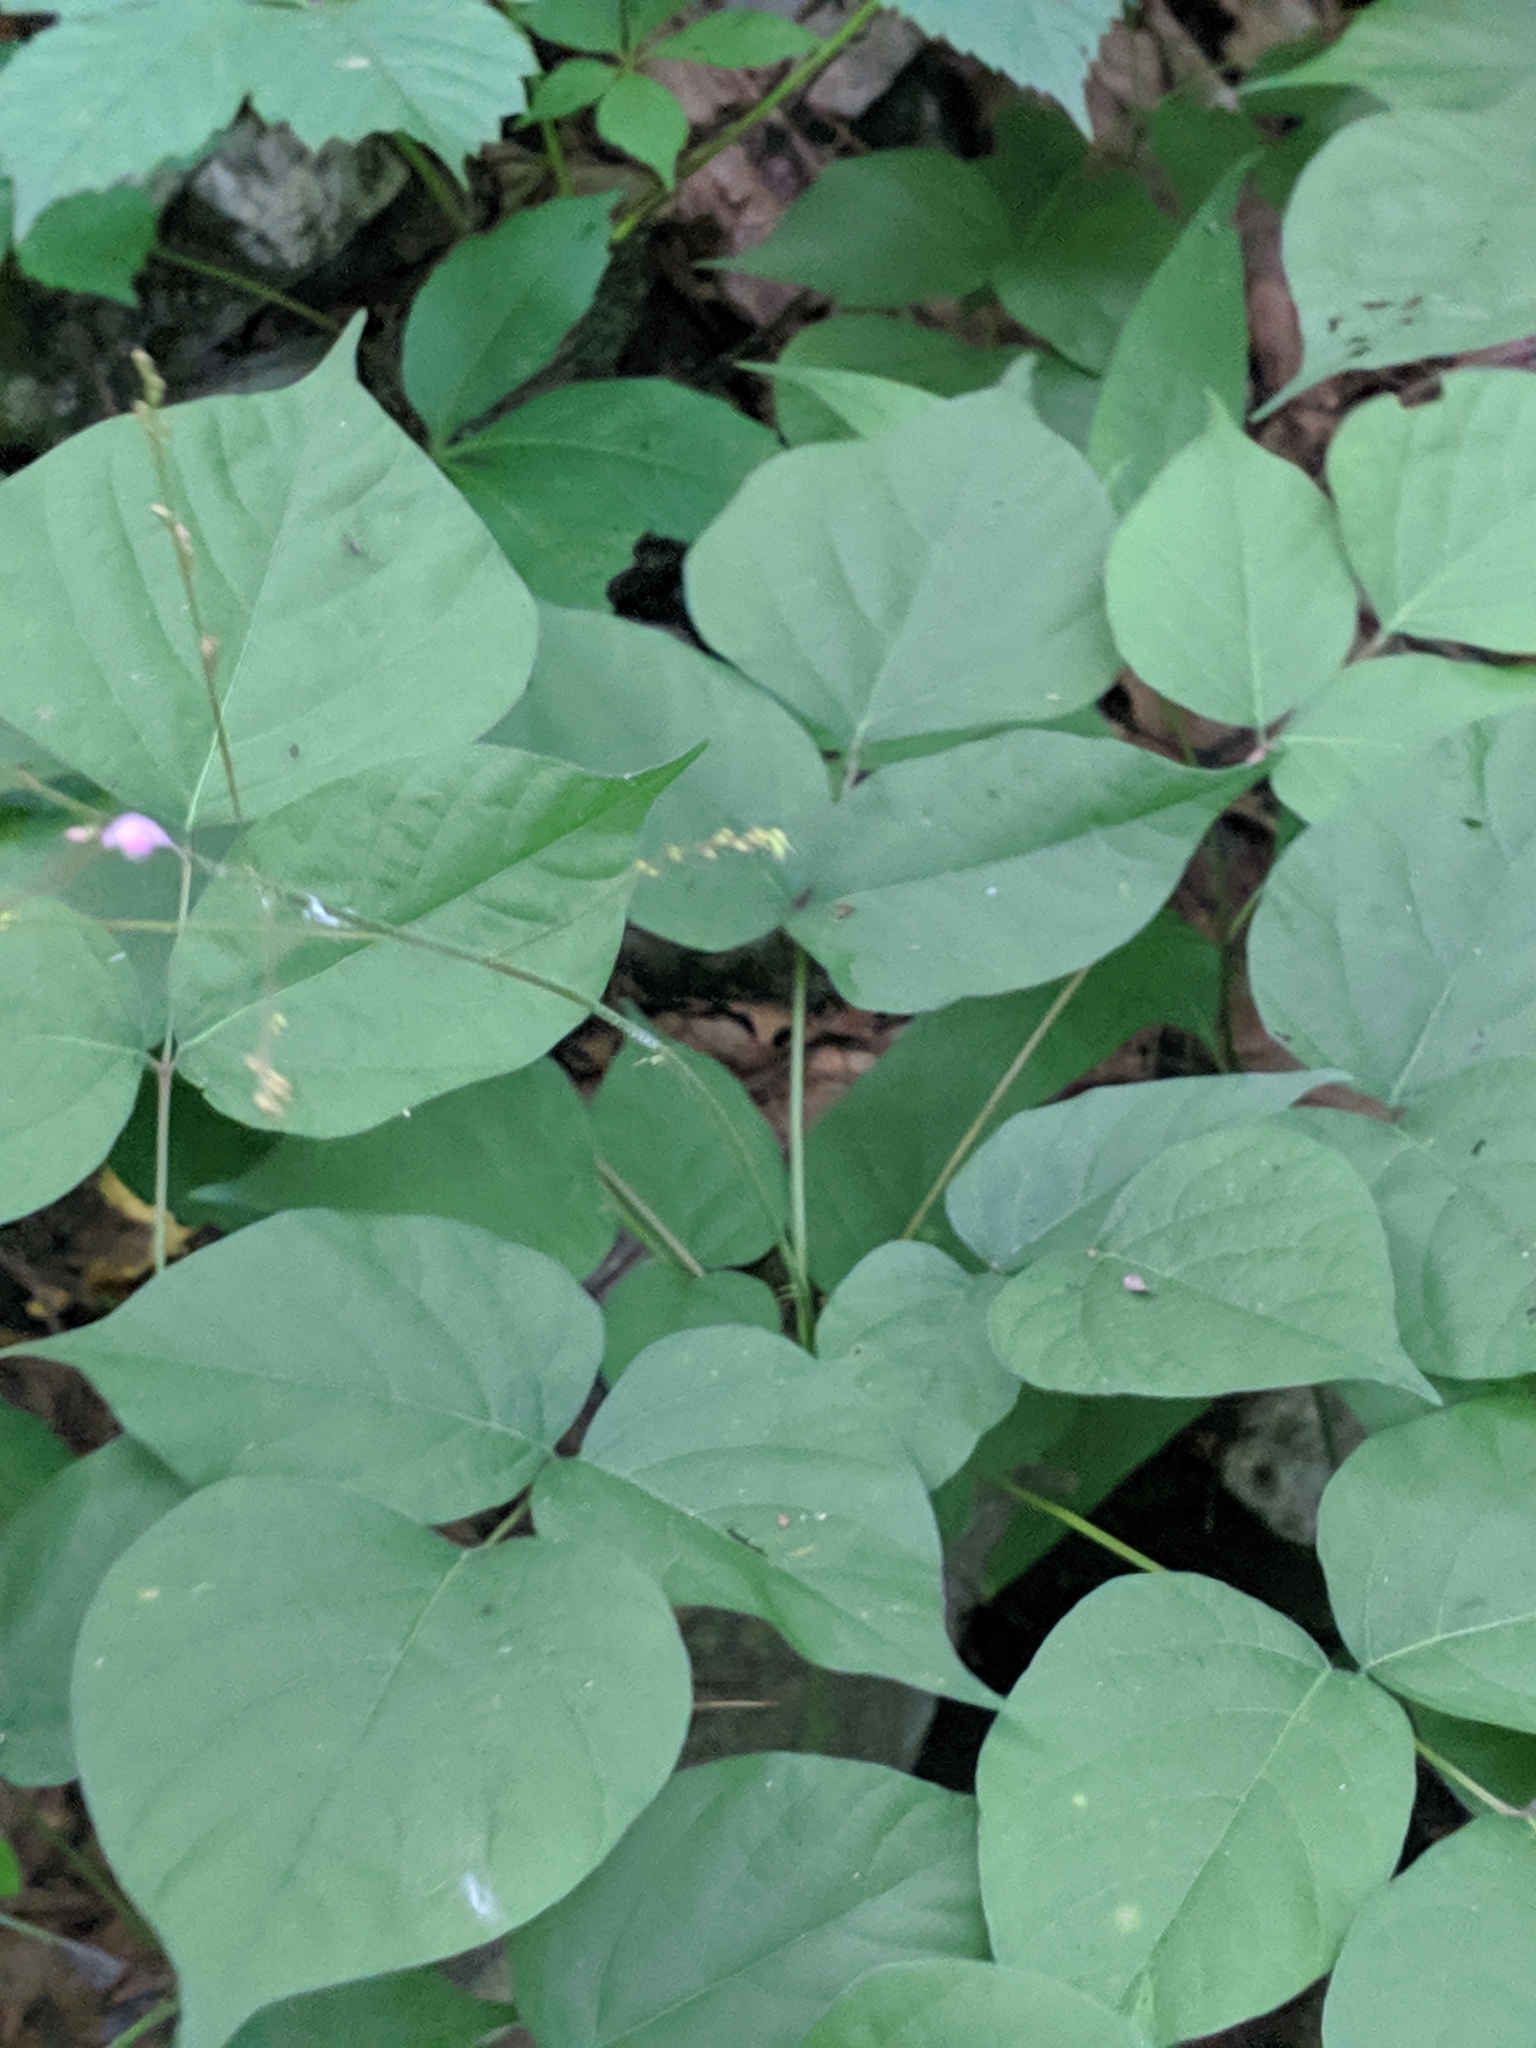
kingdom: Plantae
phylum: Tracheophyta
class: Magnoliopsida
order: Fabales
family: Fabaceae
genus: Hylodesmum
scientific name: Hylodesmum glutinosum
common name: Clustered-leaved tick-trefoil
